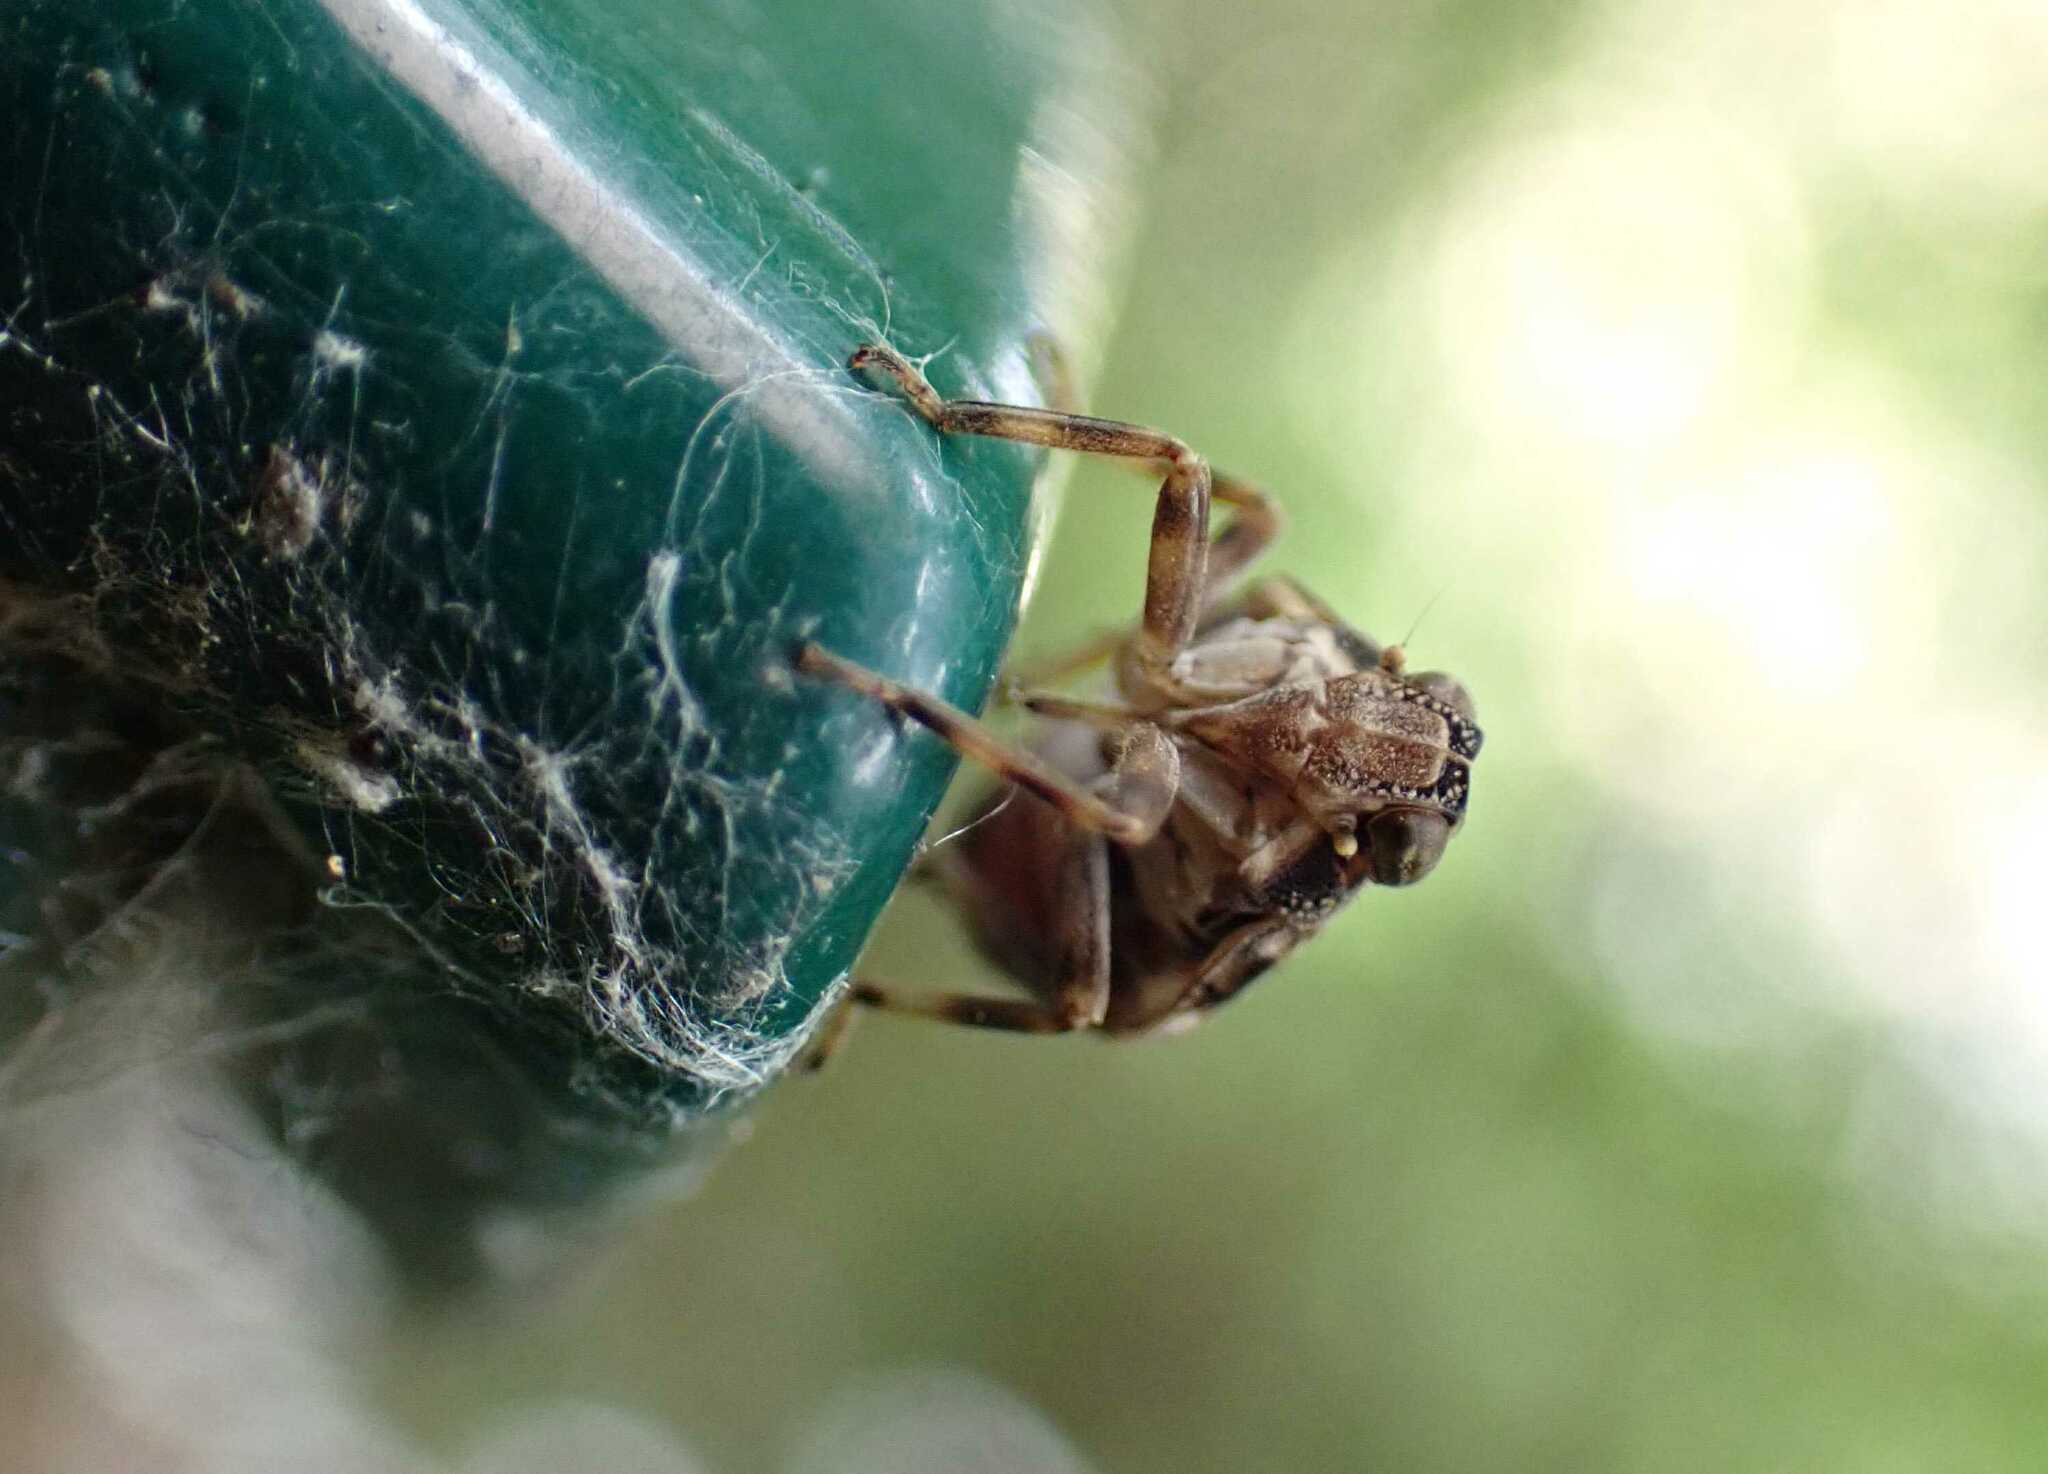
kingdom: Animalia
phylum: Arthropoda
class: Insecta
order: Hemiptera
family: Issidae
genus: Issus
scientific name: Issus coleoptratus
